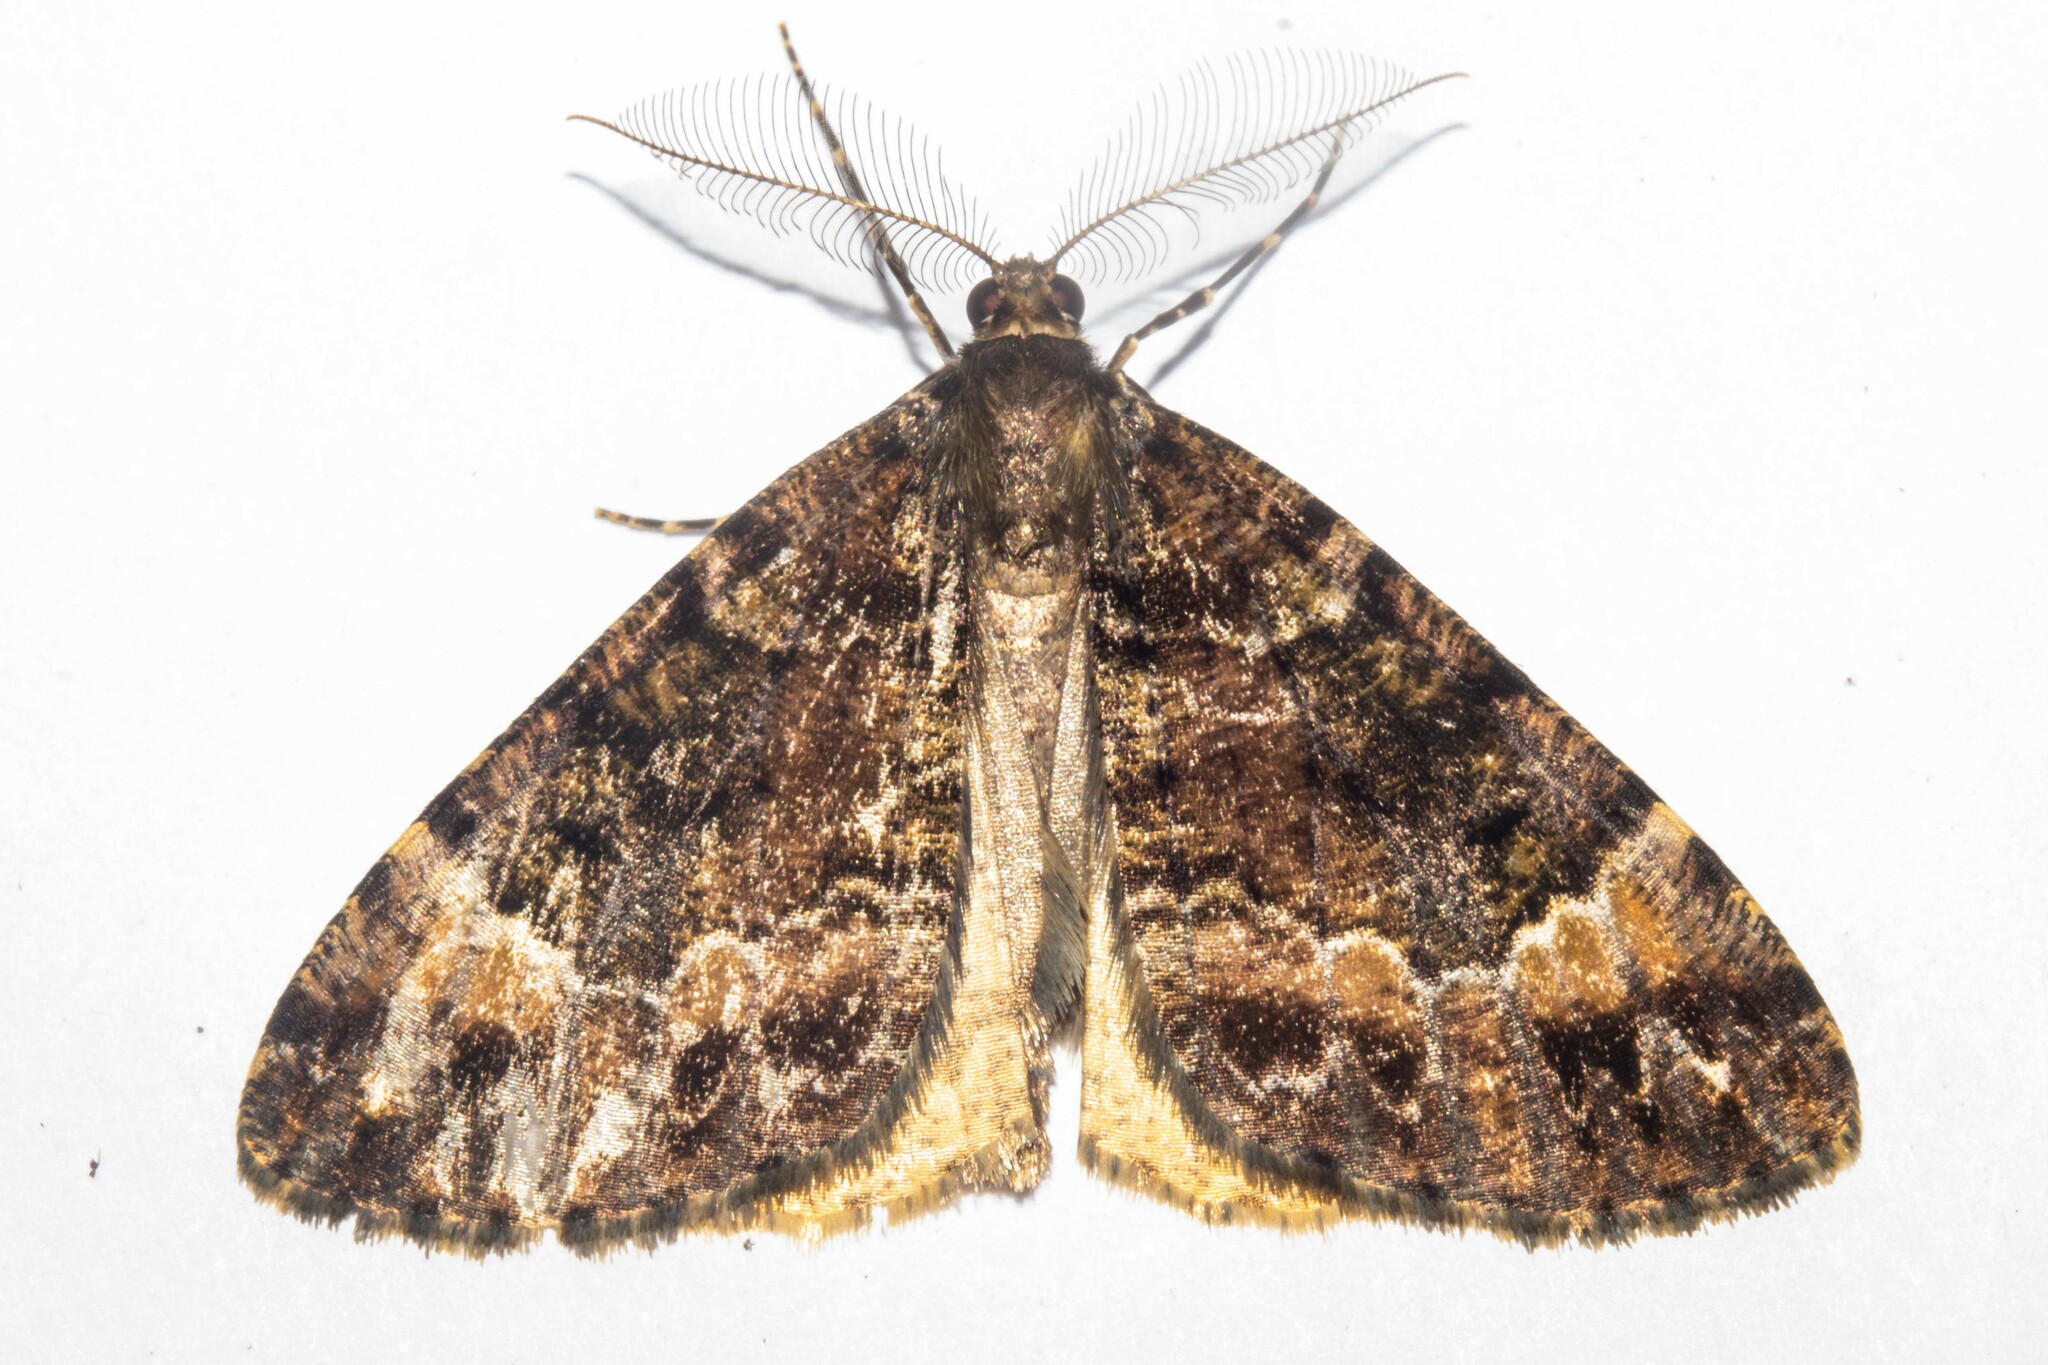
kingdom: Animalia
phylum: Arthropoda
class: Insecta
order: Lepidoptera
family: Geometridae
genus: Pseudocoremia
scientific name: Pseudocoremia productata
